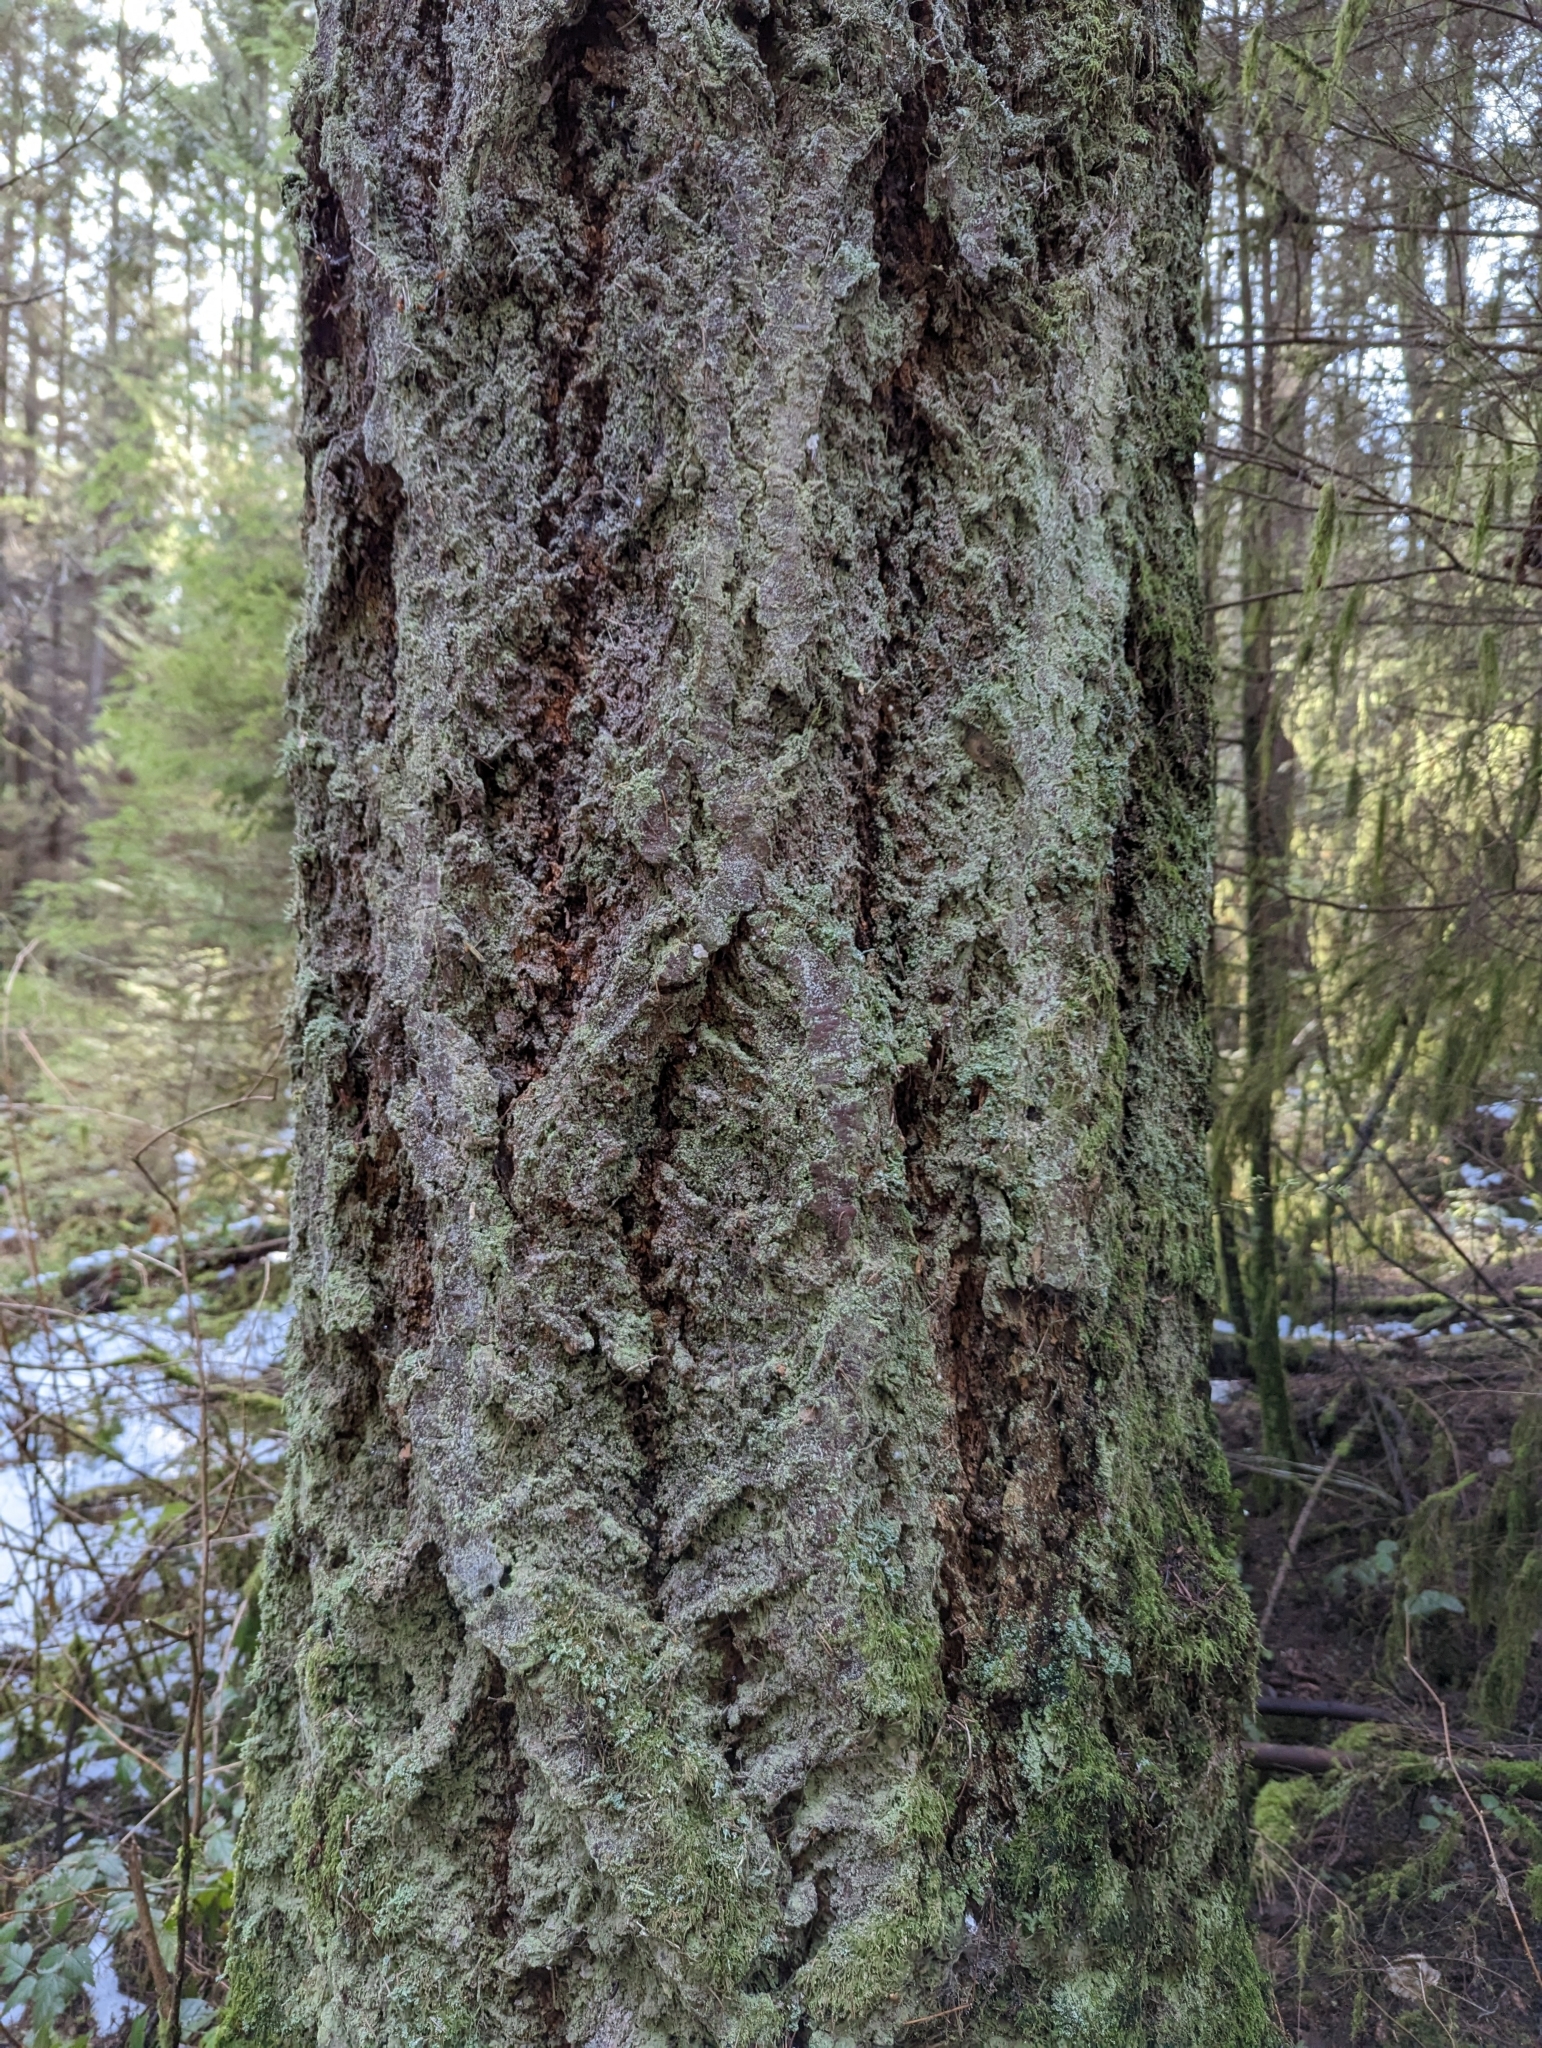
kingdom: Plantae
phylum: Tracheophyta
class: Pinopsida
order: Pinales
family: Pinaceae
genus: Pseudotsuga
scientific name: Pseudotsuga menziesii
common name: Douglas fir
